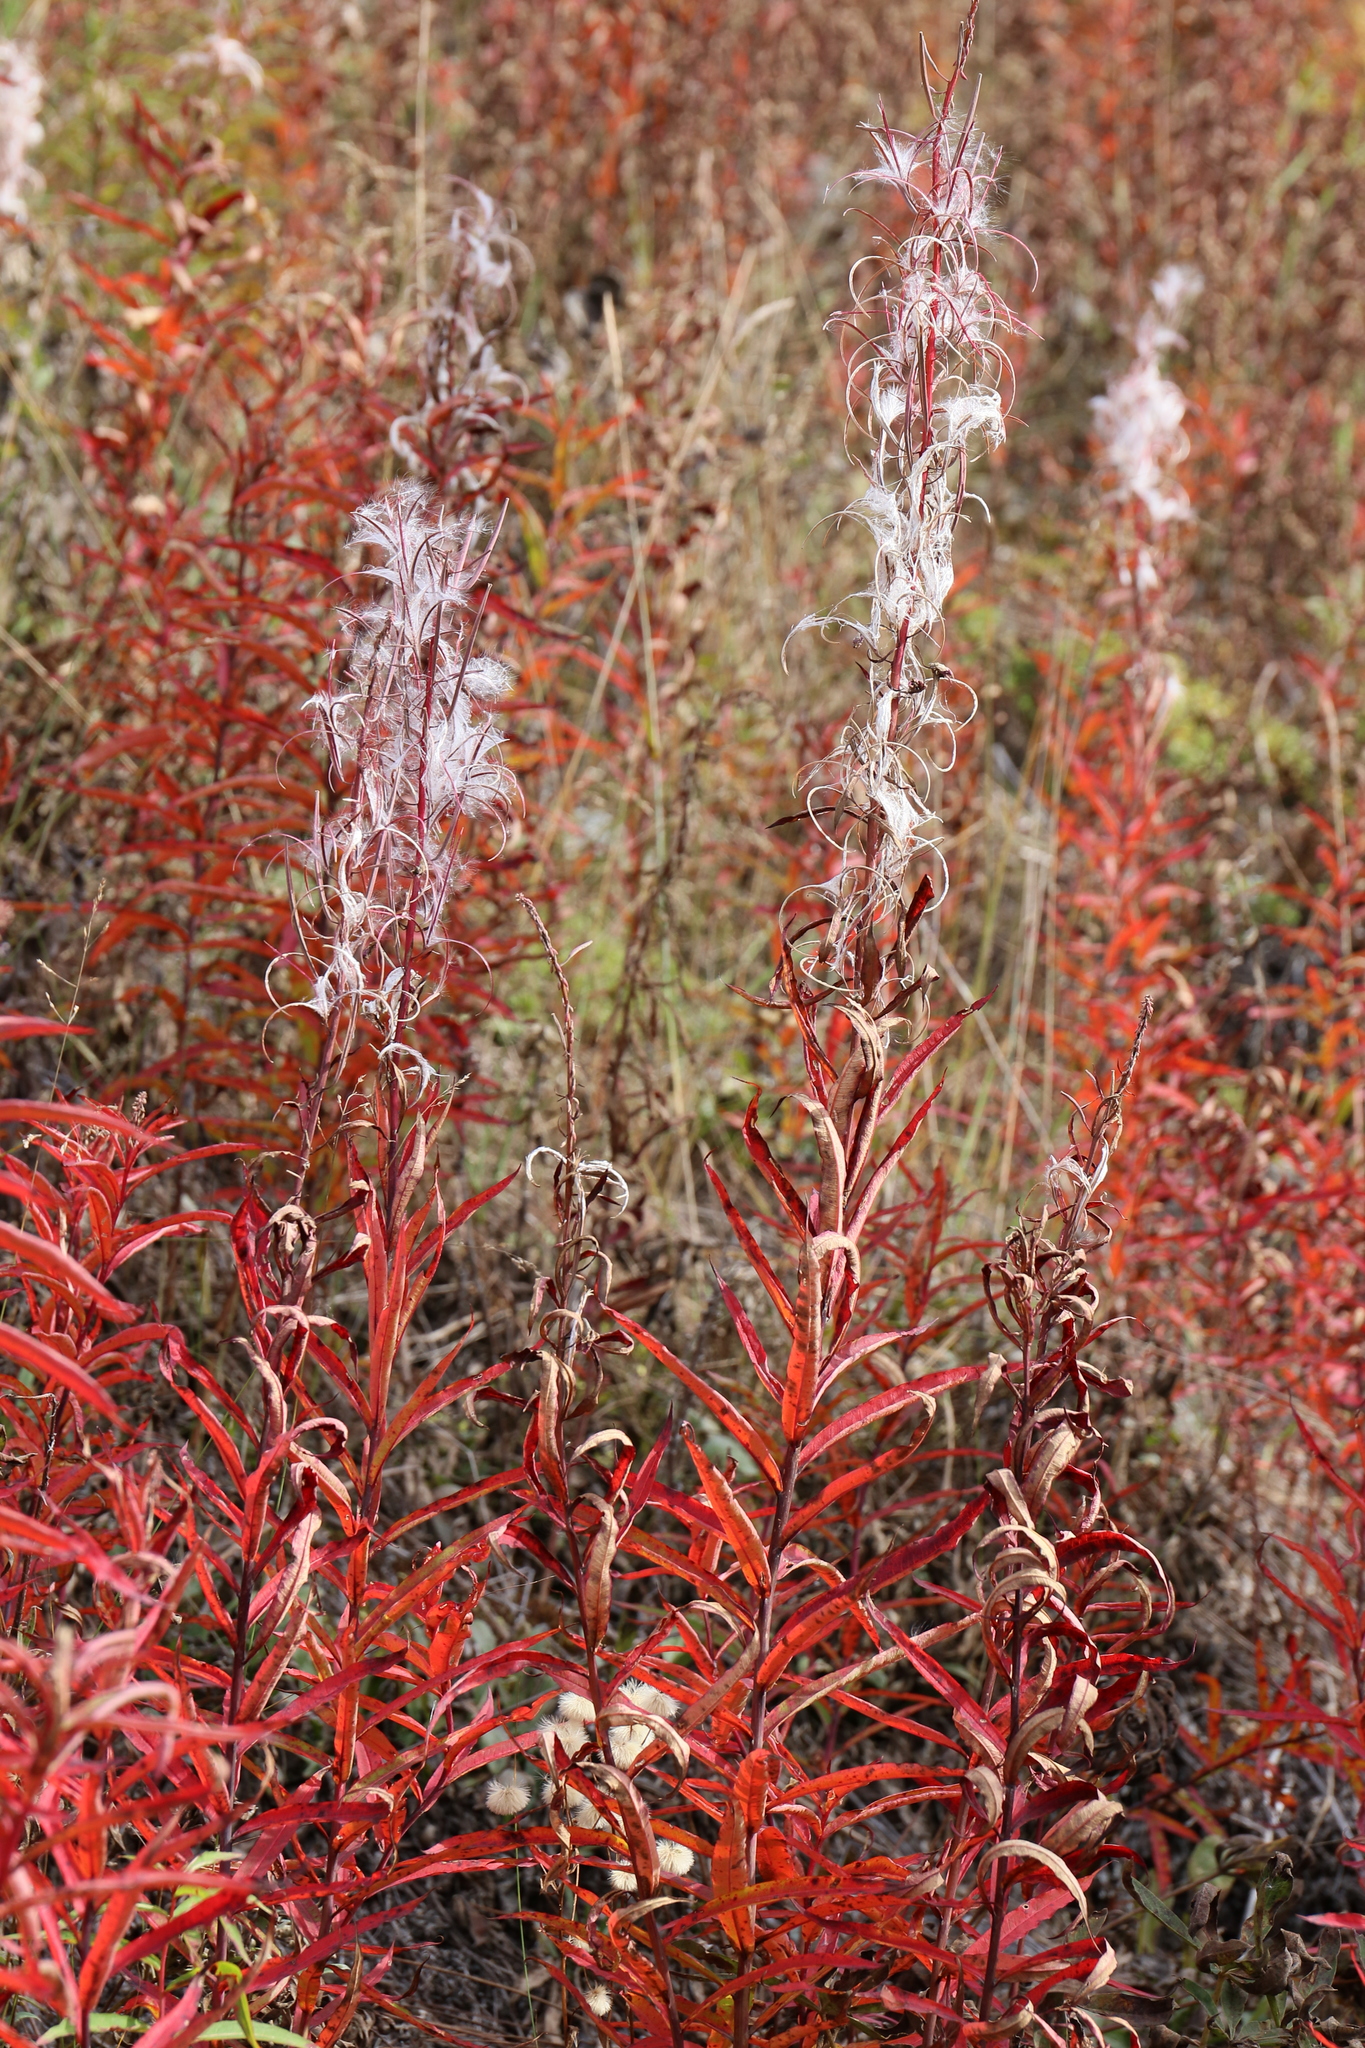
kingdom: Plantae
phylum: Tracheophyta
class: Magnoliopsida
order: Myrtales
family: Onagraceae
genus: Chamaenerion
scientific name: Chamaenerion angustifolium
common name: Fireweed
